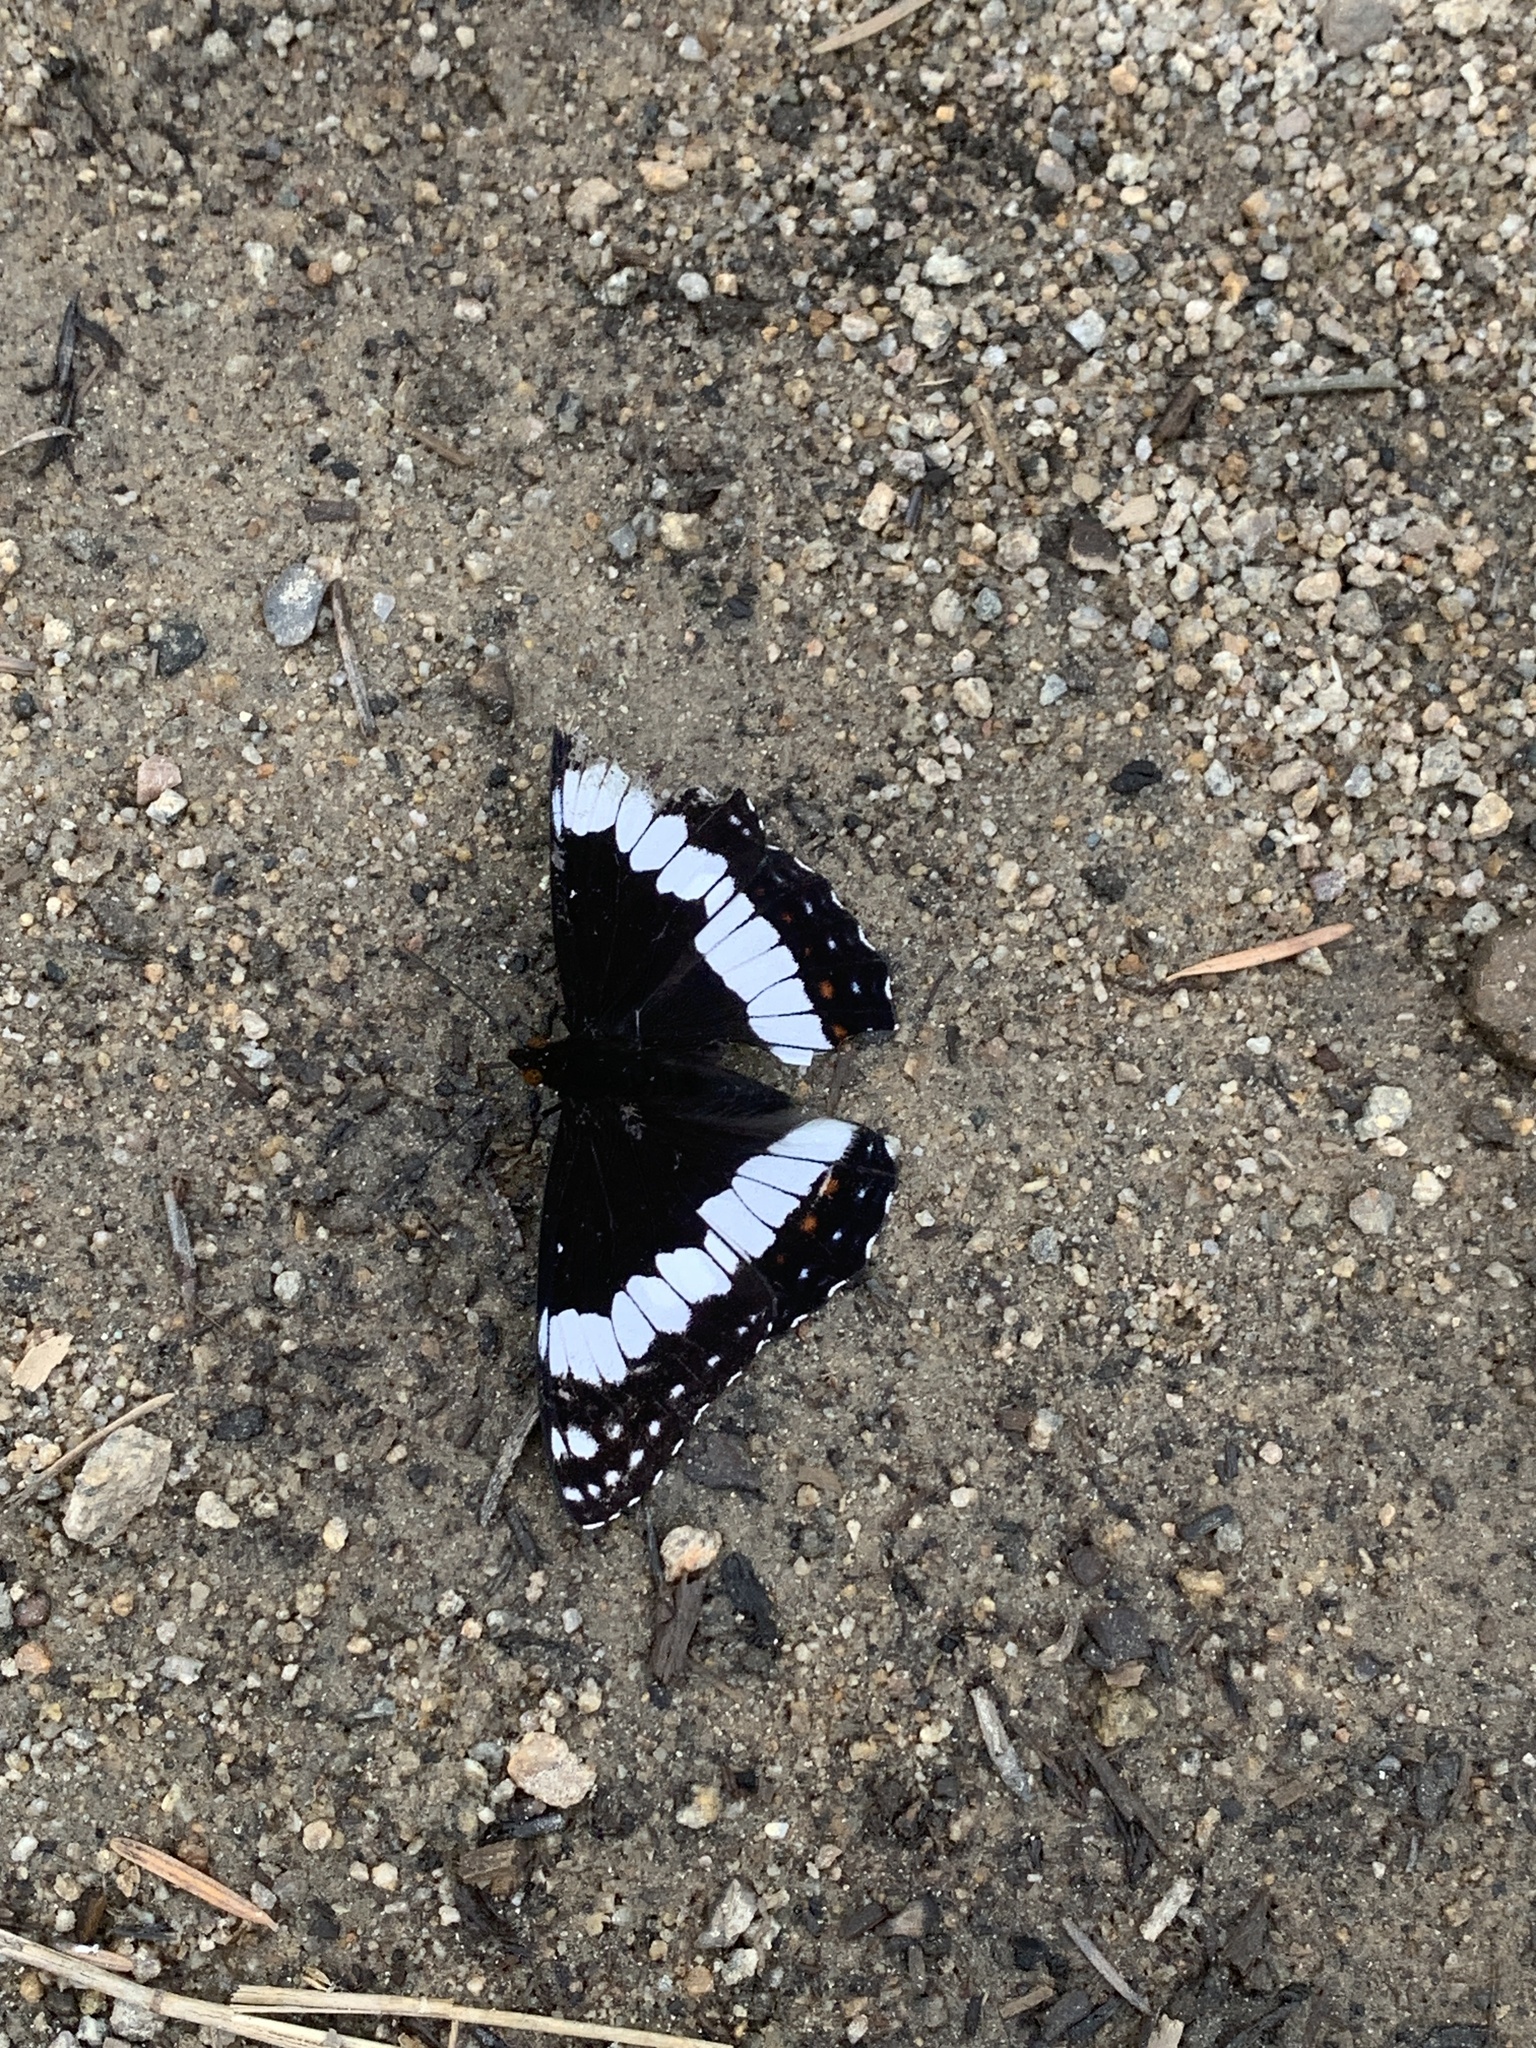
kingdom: Animalia
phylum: Arthropoda
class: Insecta
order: Lepidoptera
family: Nymphalidae
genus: Limenitis
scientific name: Limenitis weidemeyerii
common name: Weidemeyer's admiral
